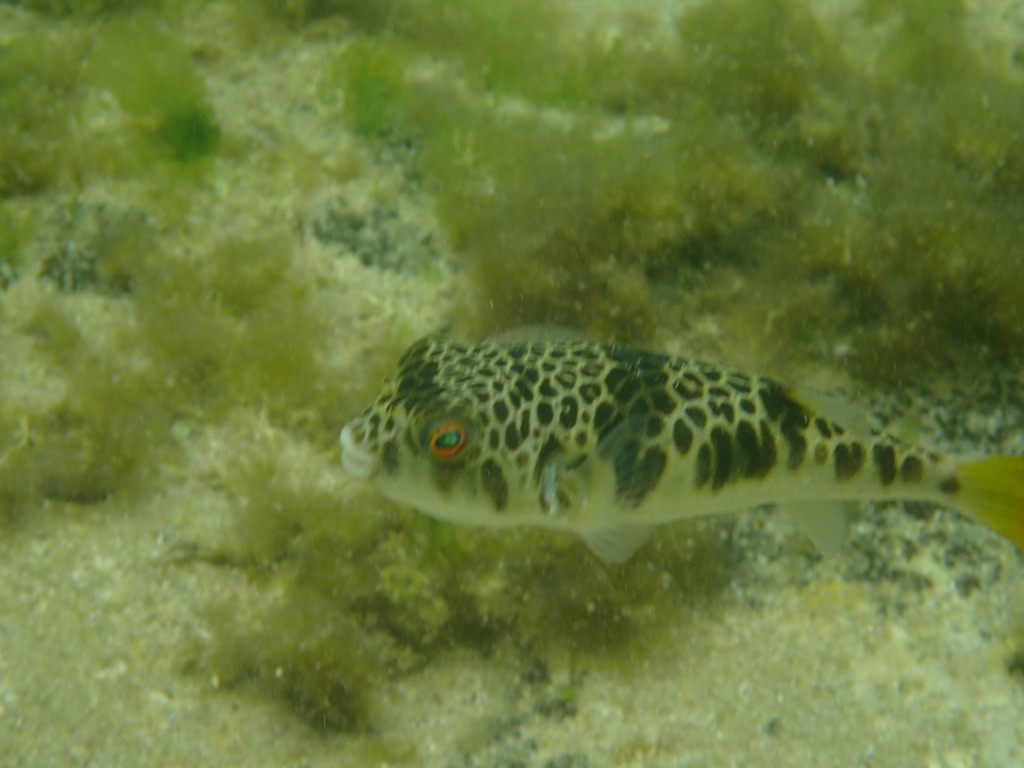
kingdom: Animalia
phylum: Chordata
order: Tetraodontiformes
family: Tetraodontidae
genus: Tetractenos
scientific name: Tetractenos glaber
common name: Smooth toadfish
